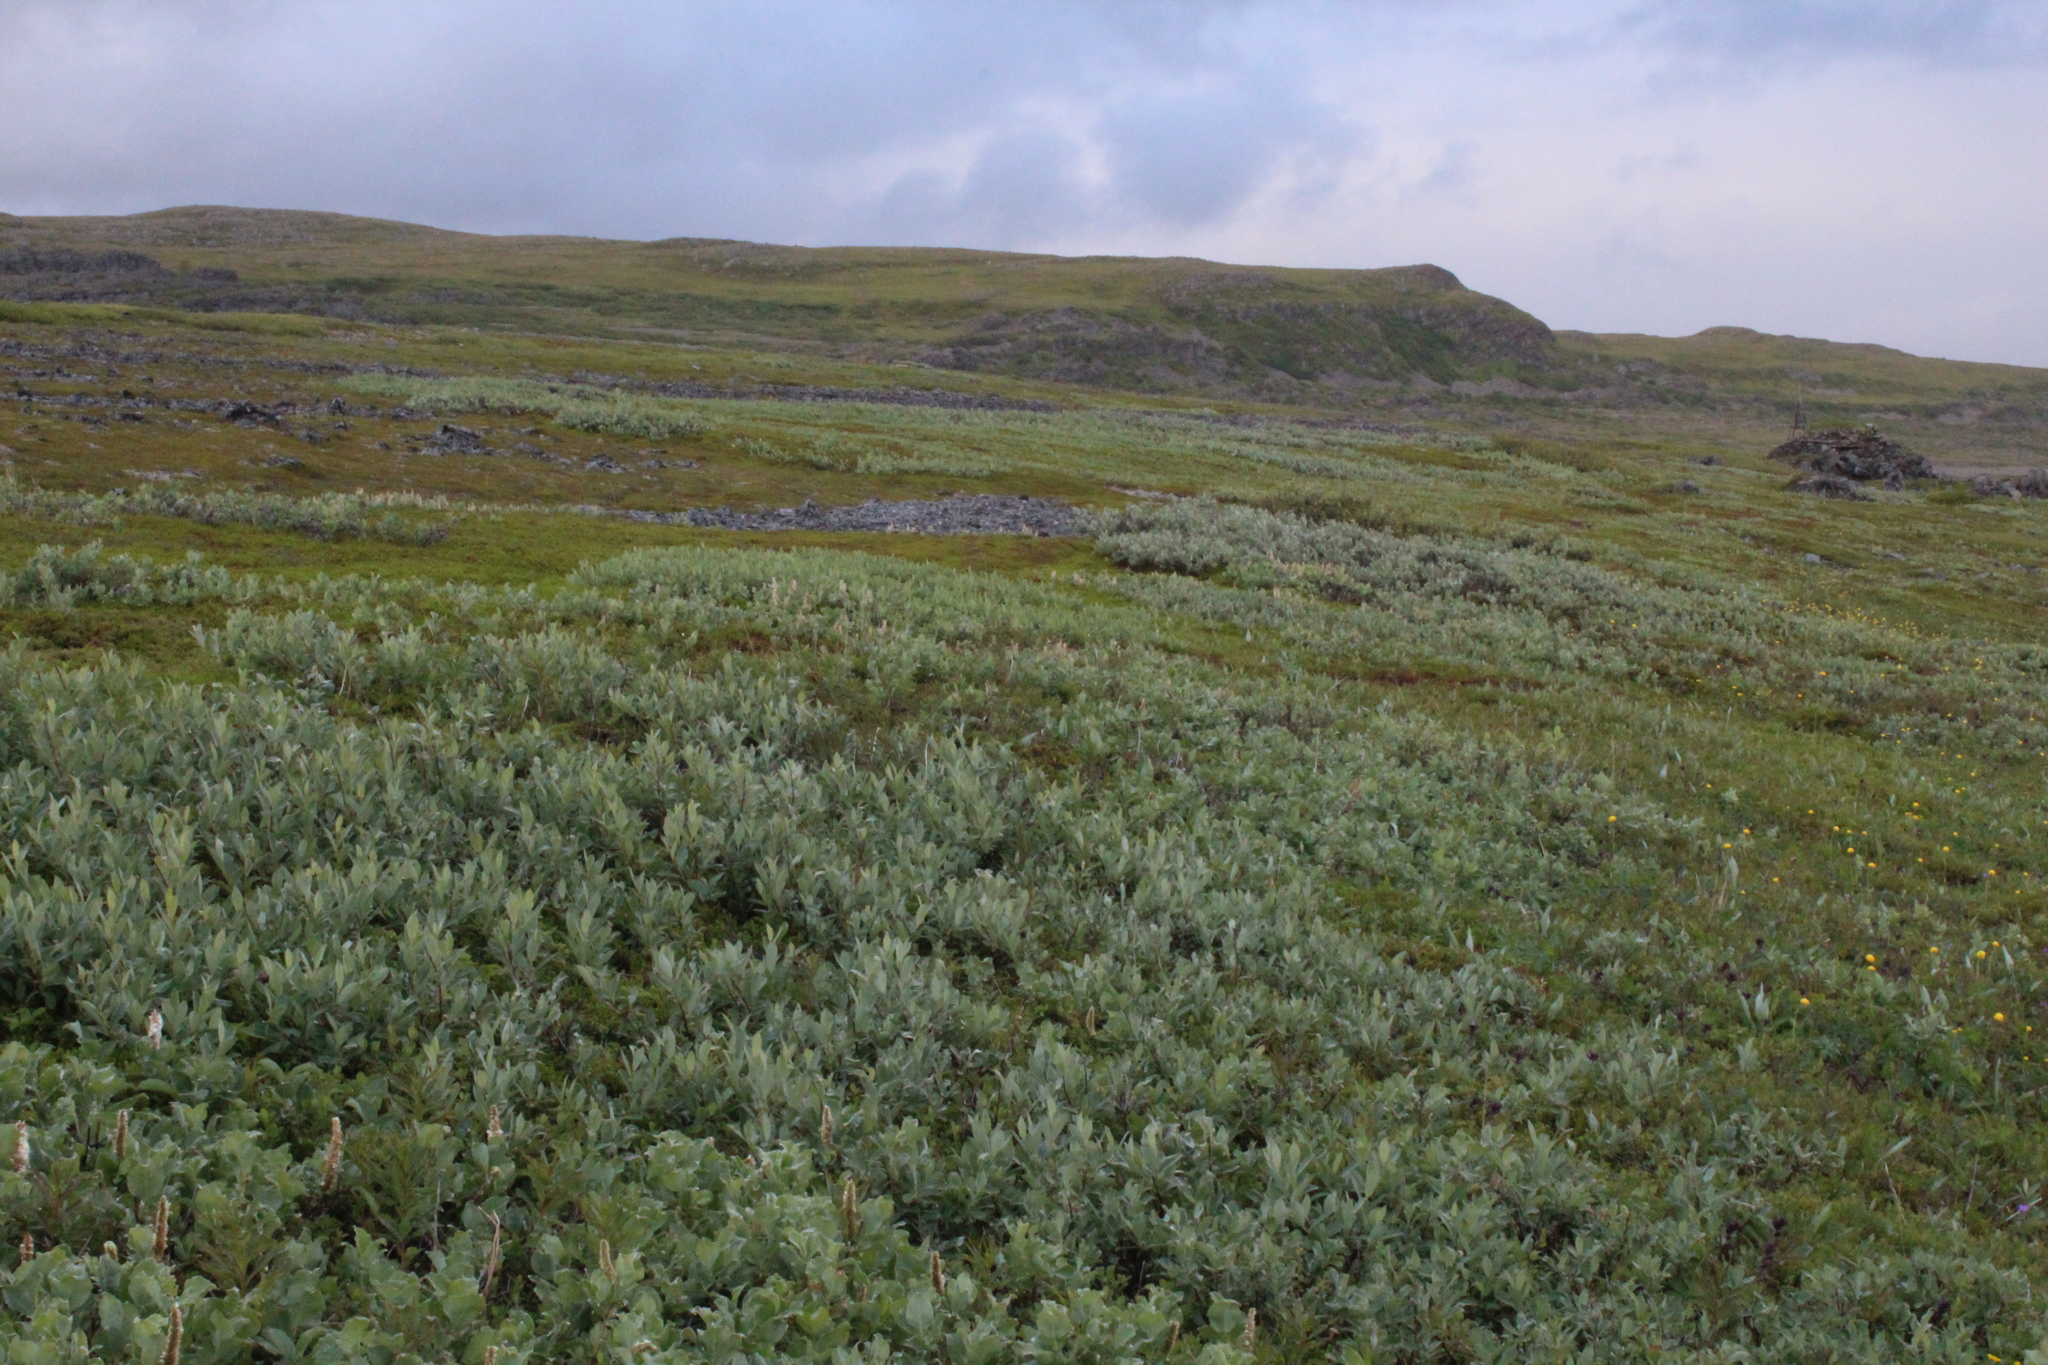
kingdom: Plantae
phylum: Tracheophyta
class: Magnoliopsida
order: Malpighiales
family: Salicaceae
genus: Salix
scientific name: Salix lanata
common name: Woolly willow
